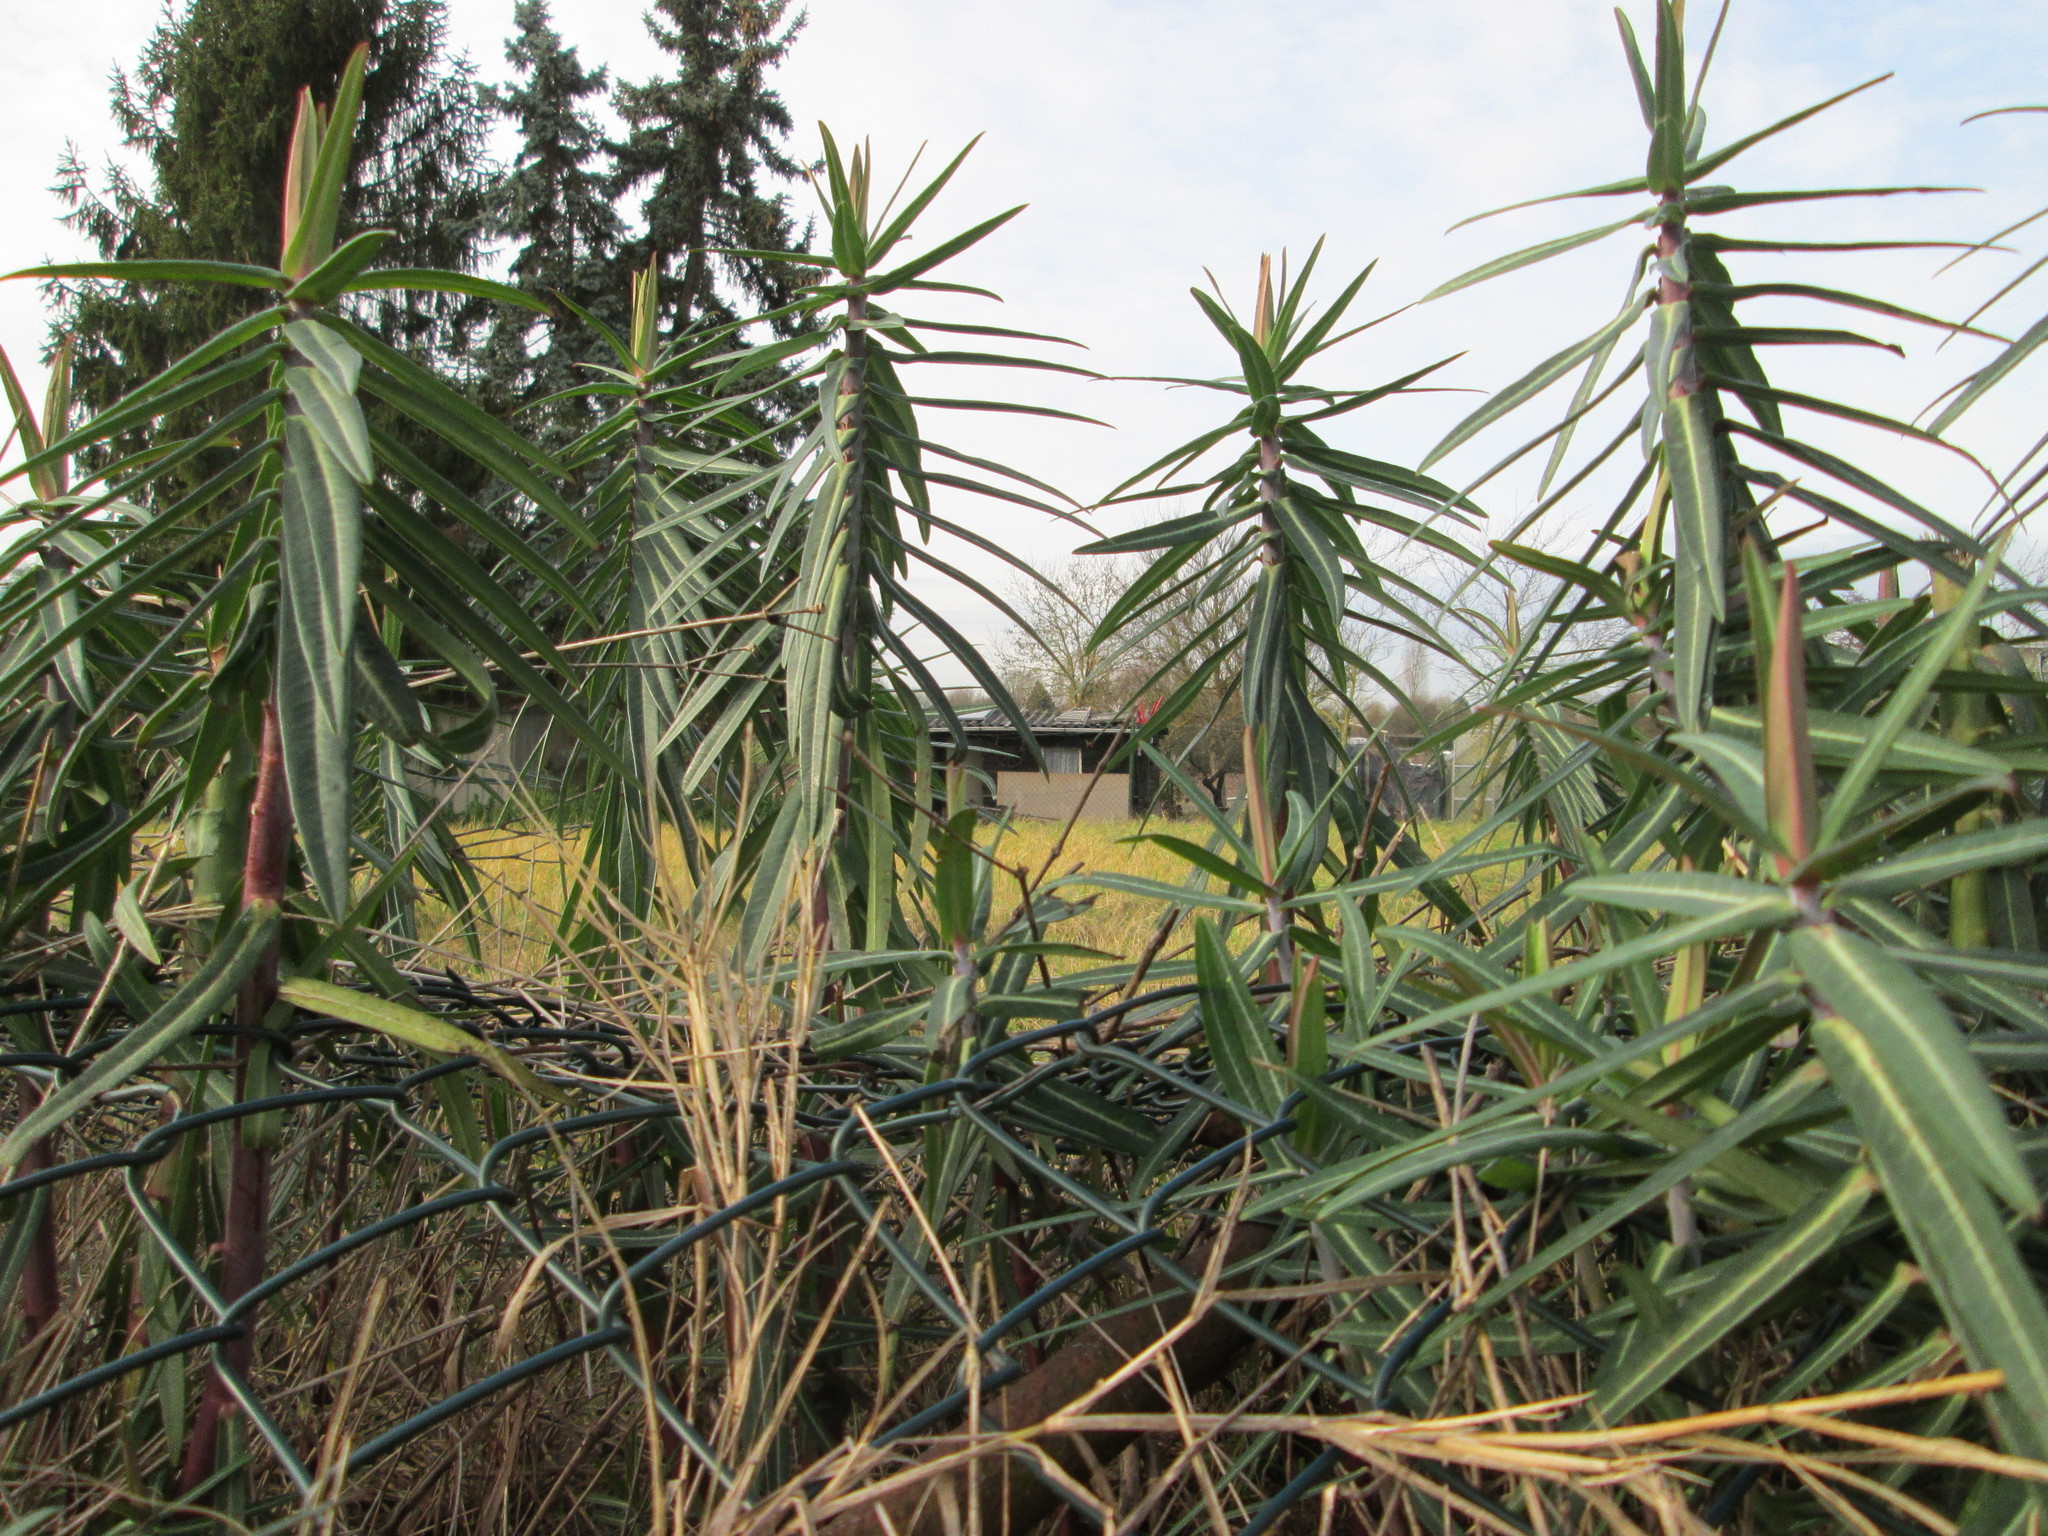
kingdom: Plantae
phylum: Tracheophyta
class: Magnoliopsida
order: Malpighiales
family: Euphorbiaceae
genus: Euphorbia
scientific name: Euphorbia lathyris
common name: Caper spurge
